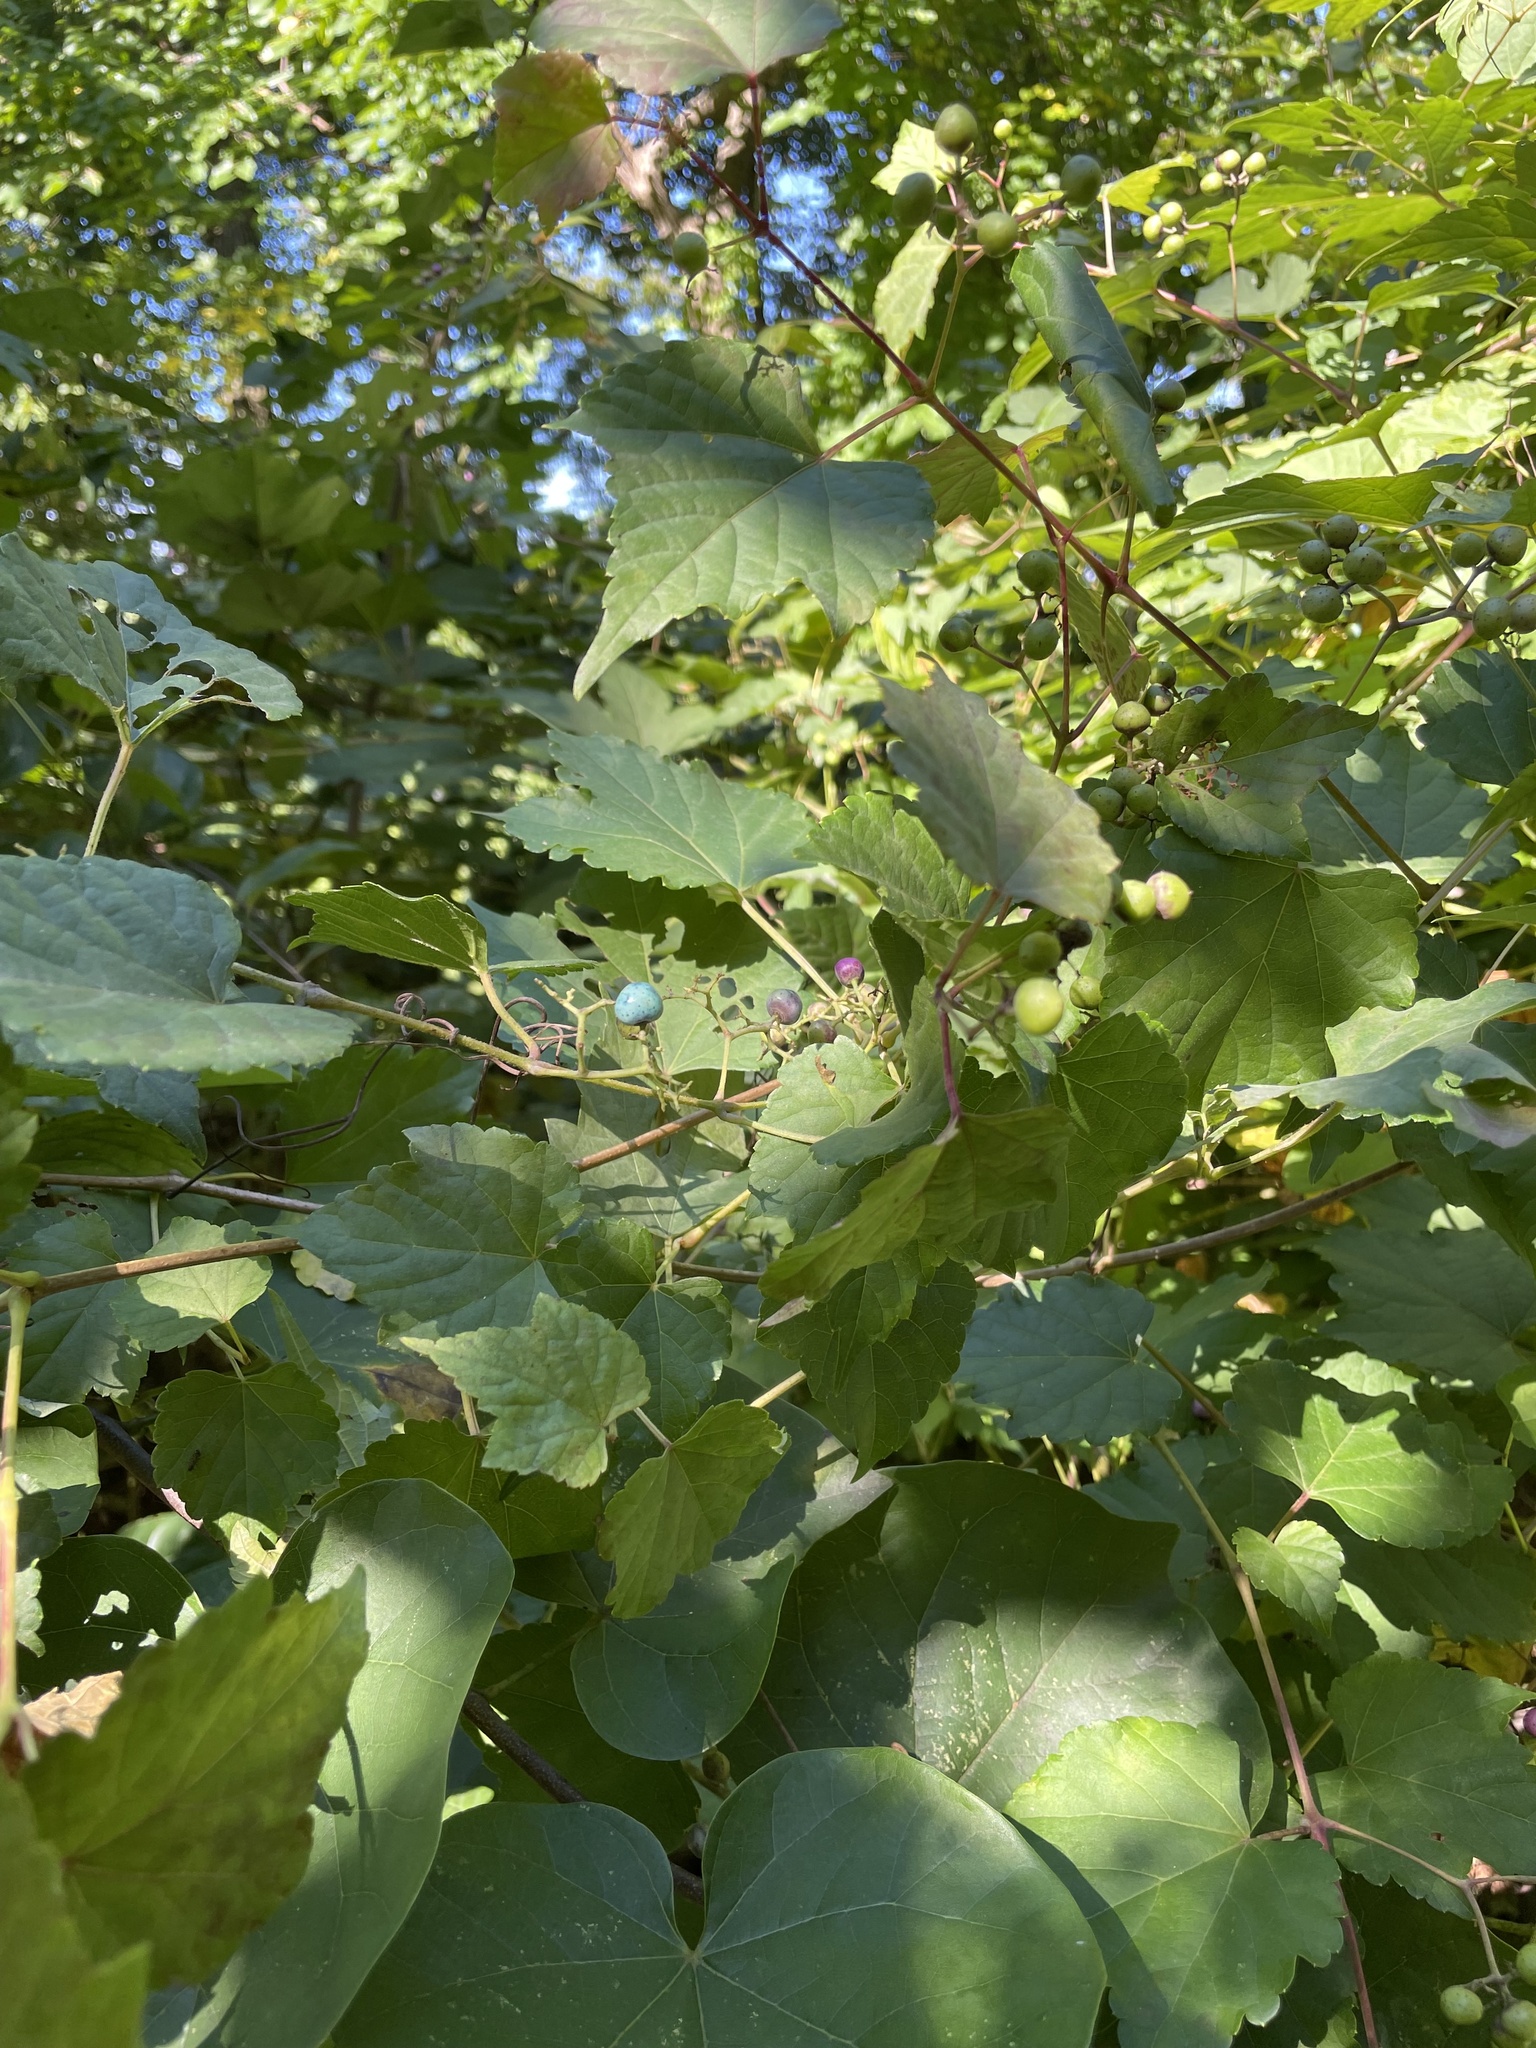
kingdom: Plantae
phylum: Tracheophyta
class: Magnoliopsida
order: Vitales
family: Vitaceae
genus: Ampelopsis
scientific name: Ampelopsis glandulosa
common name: Amur peppervine
